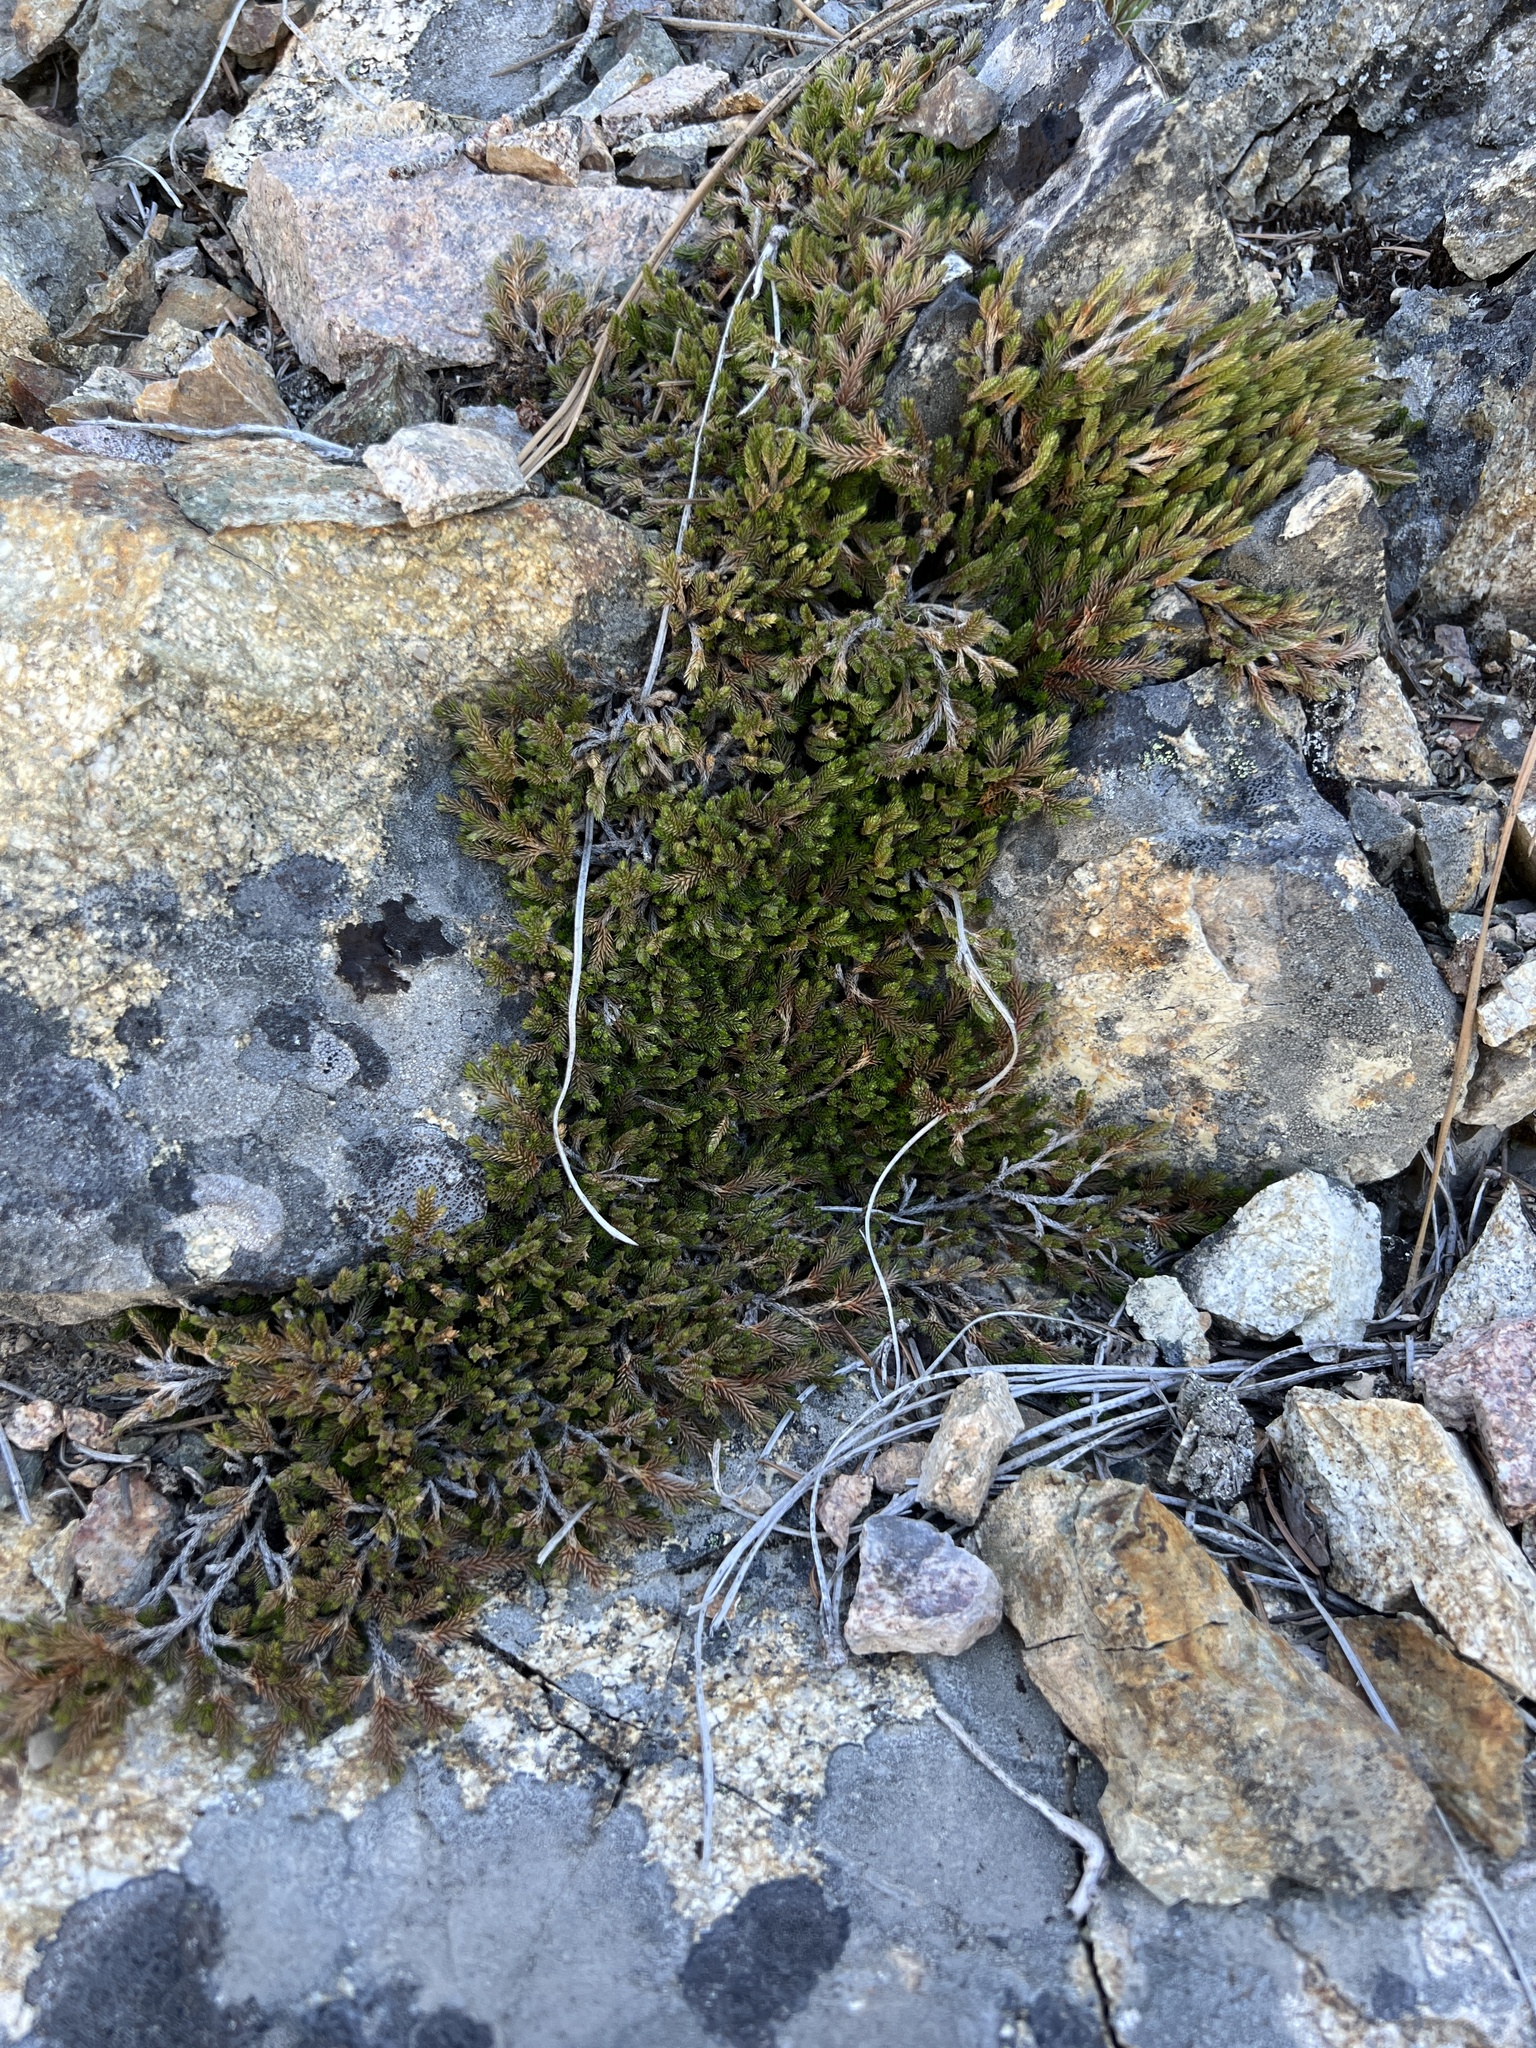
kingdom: Plantae
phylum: Tracheophyta
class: Lycopodiopsida
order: Selaginellales
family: Selaginellaceae
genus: Selaginella
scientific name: Selaginella wallacei
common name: Wallace's selaginella
